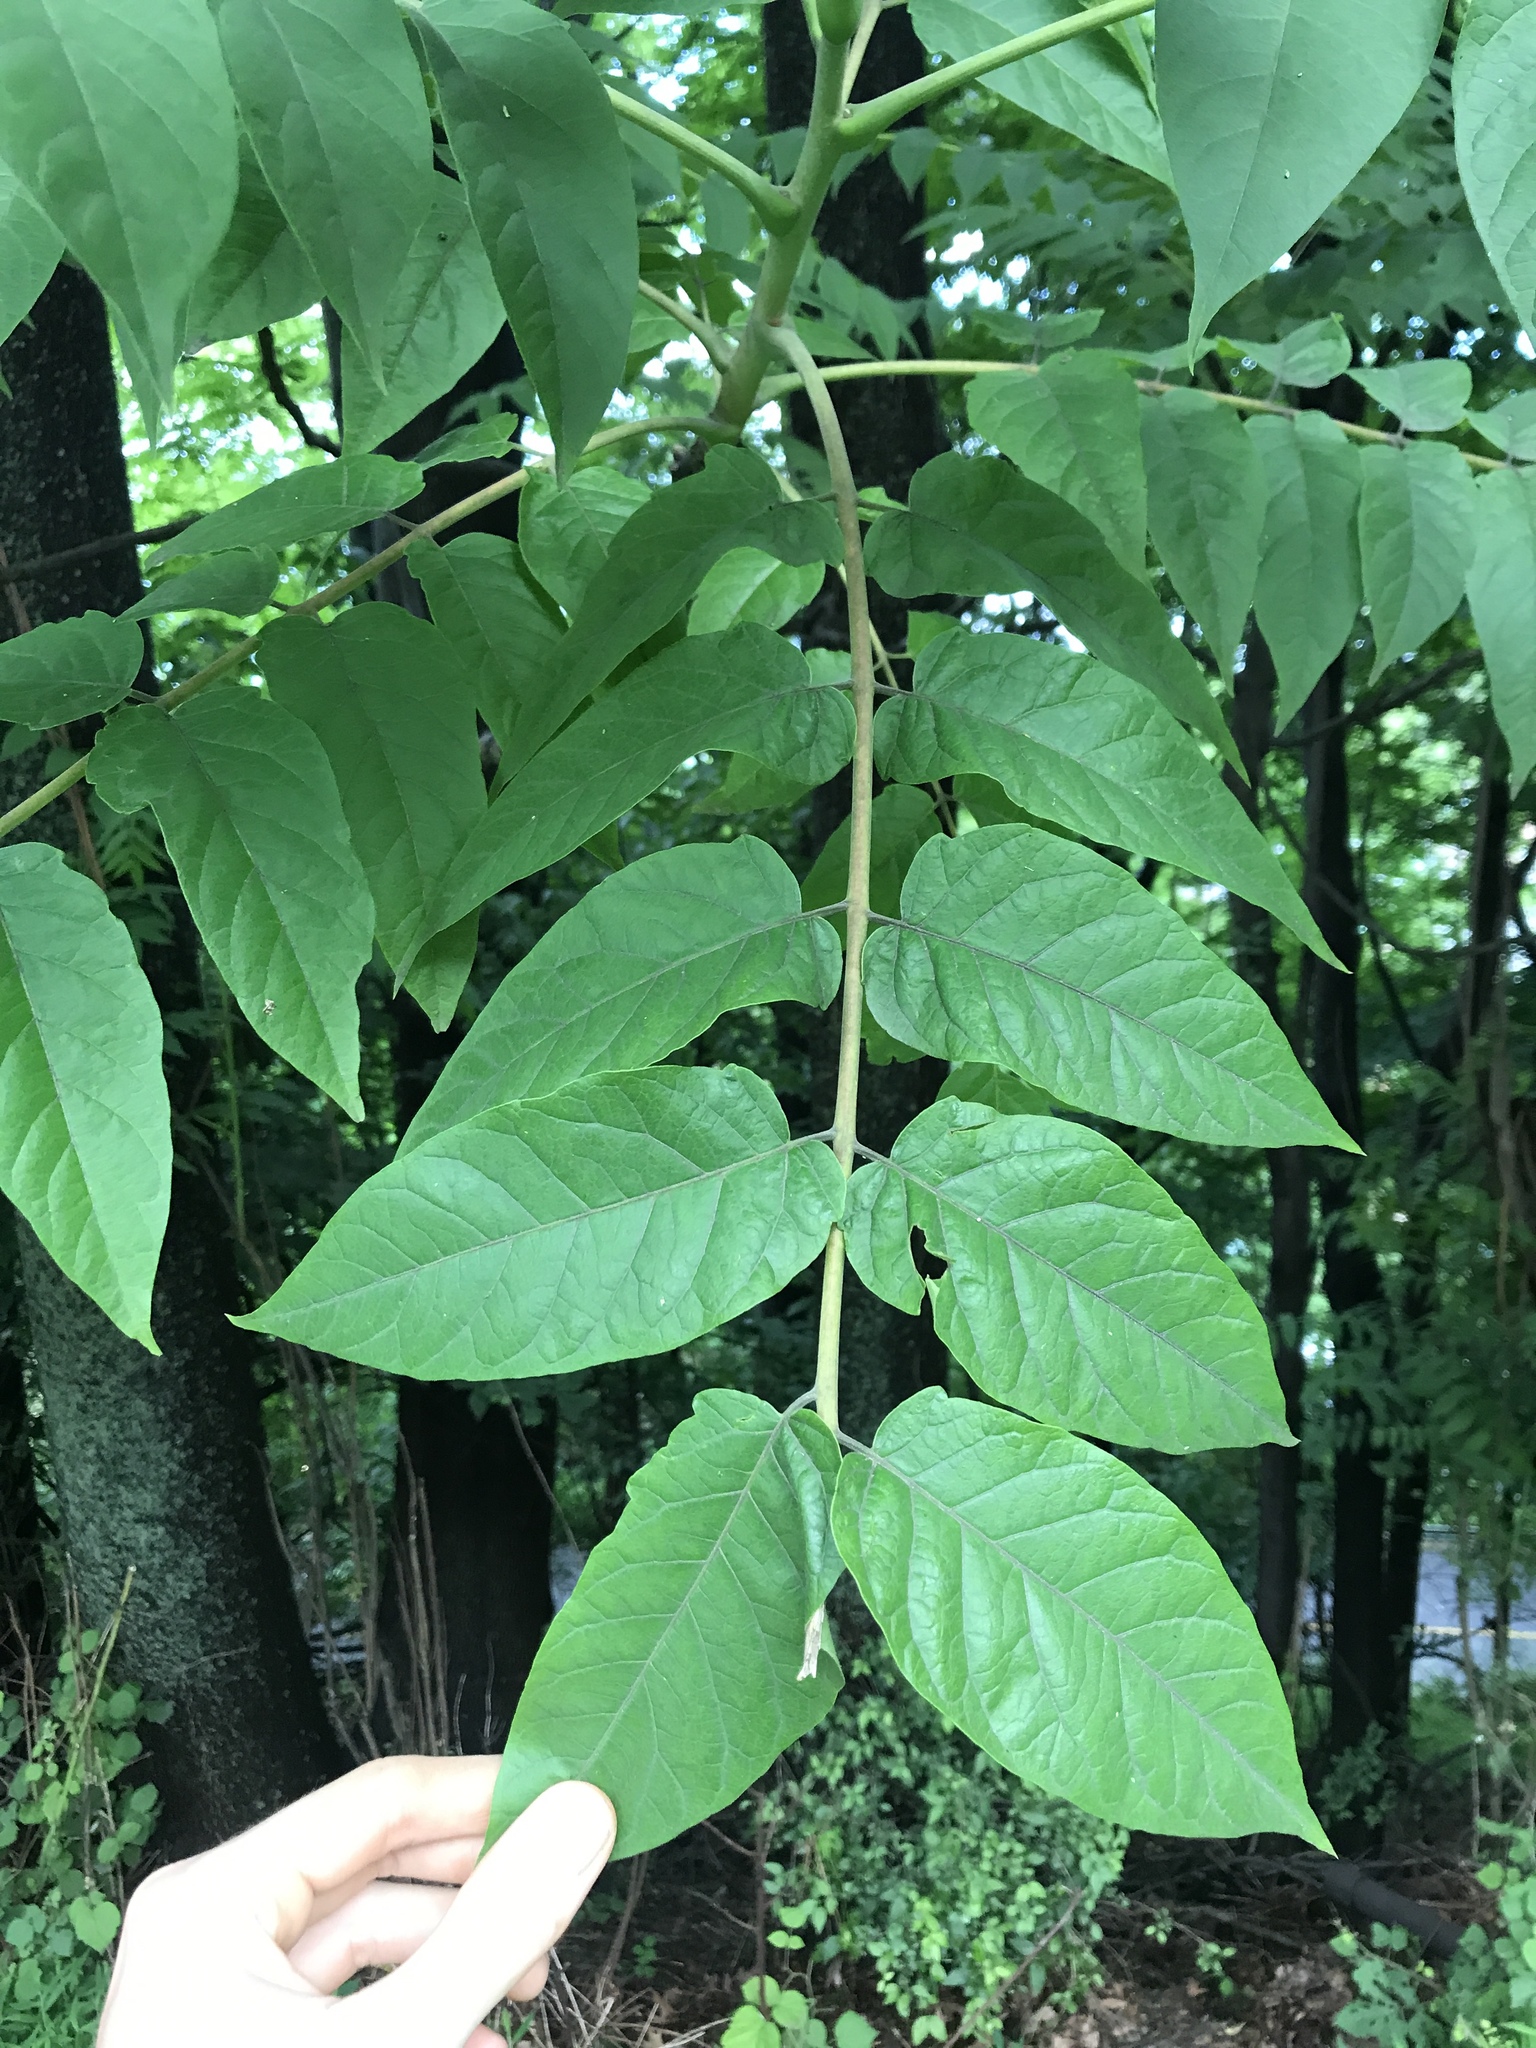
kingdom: Plantae
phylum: Tracheophyta
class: Magnoliopsida
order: Sapindales
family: Simaroubaceae
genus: Ailanthus
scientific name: Ailanthus altissima
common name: Tree-of-heaven
